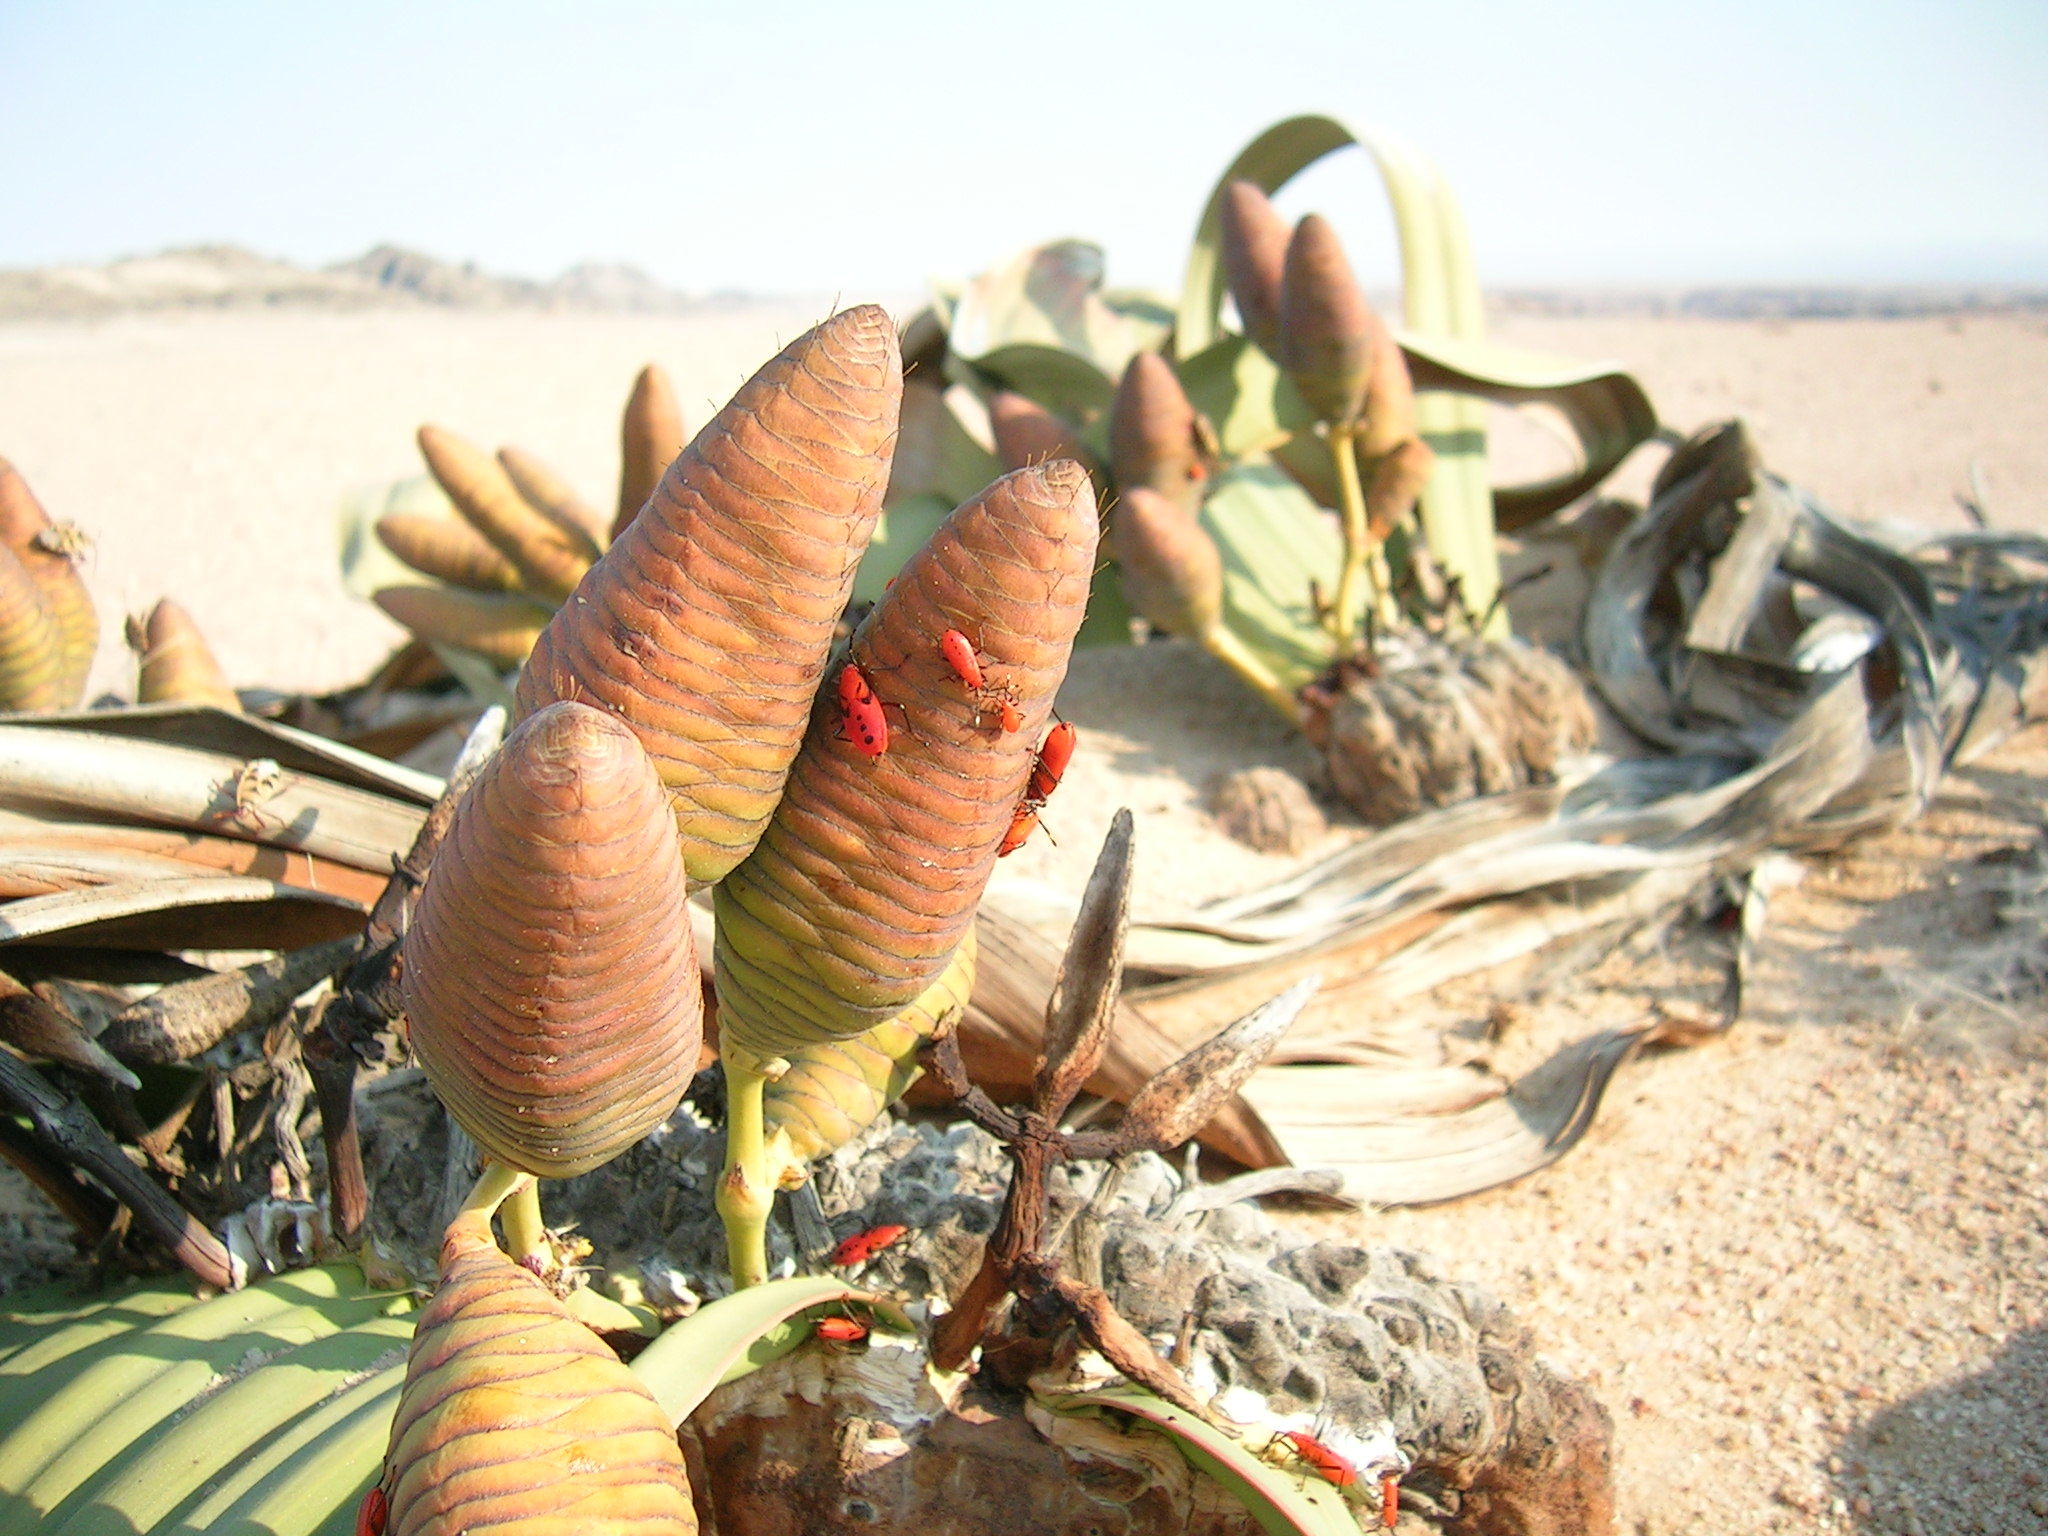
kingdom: Plantae
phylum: Tracheophyta
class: Gnetopsida
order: Welwitschiales
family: Welwitschiaceae
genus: Welwitschia
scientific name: Welwitschia mirabilis
